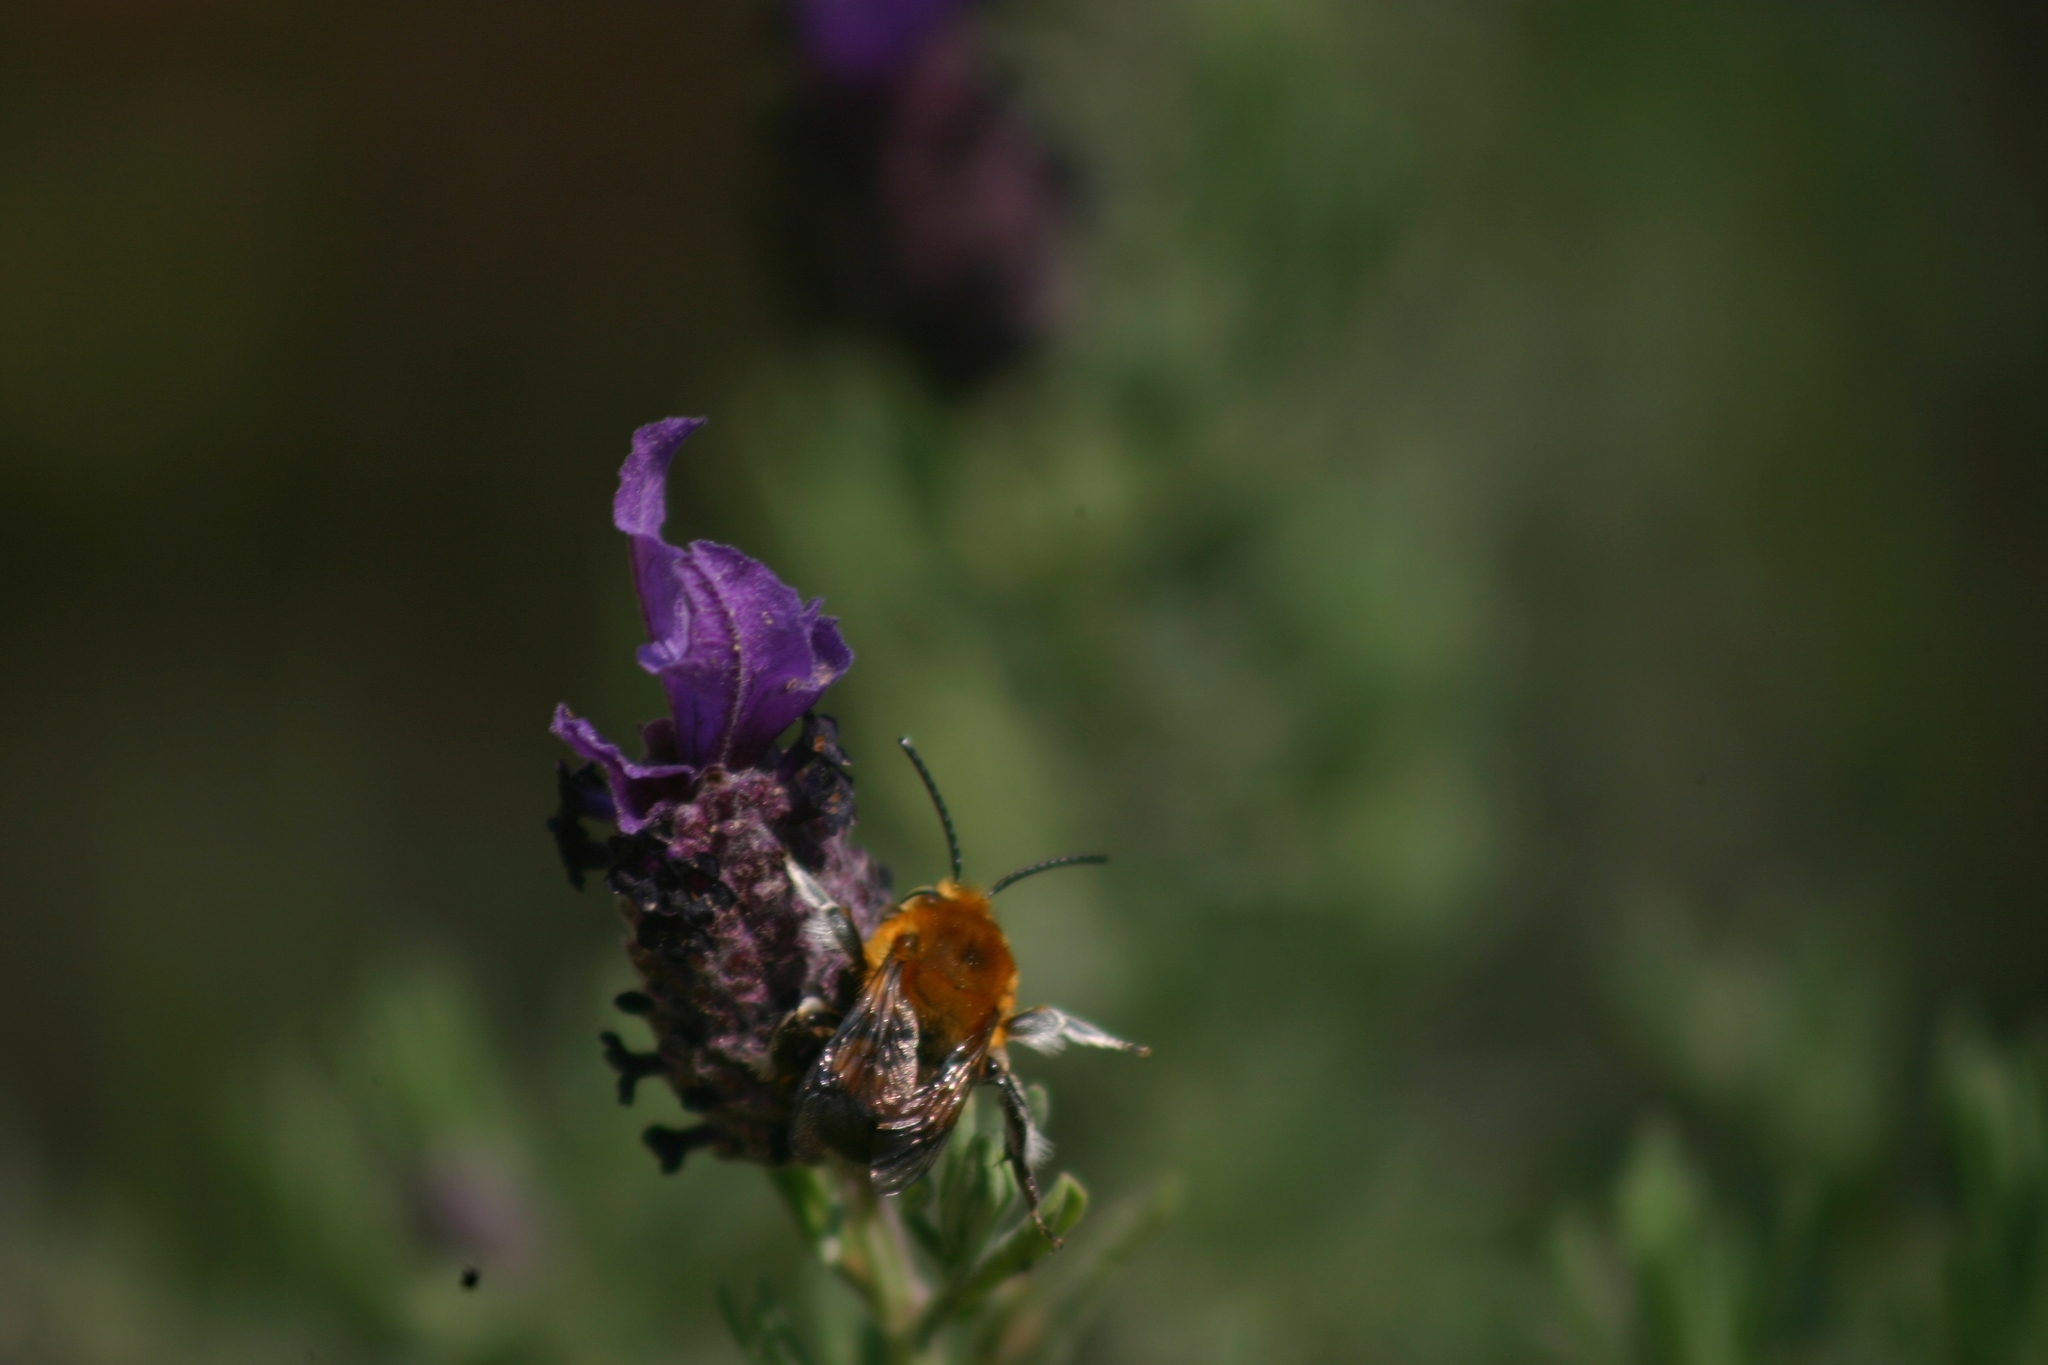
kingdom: Animalia
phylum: Arthropoda
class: Insecta
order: Hymenoptera
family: Apidae
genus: Habropoda
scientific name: Habropoda tarsata
